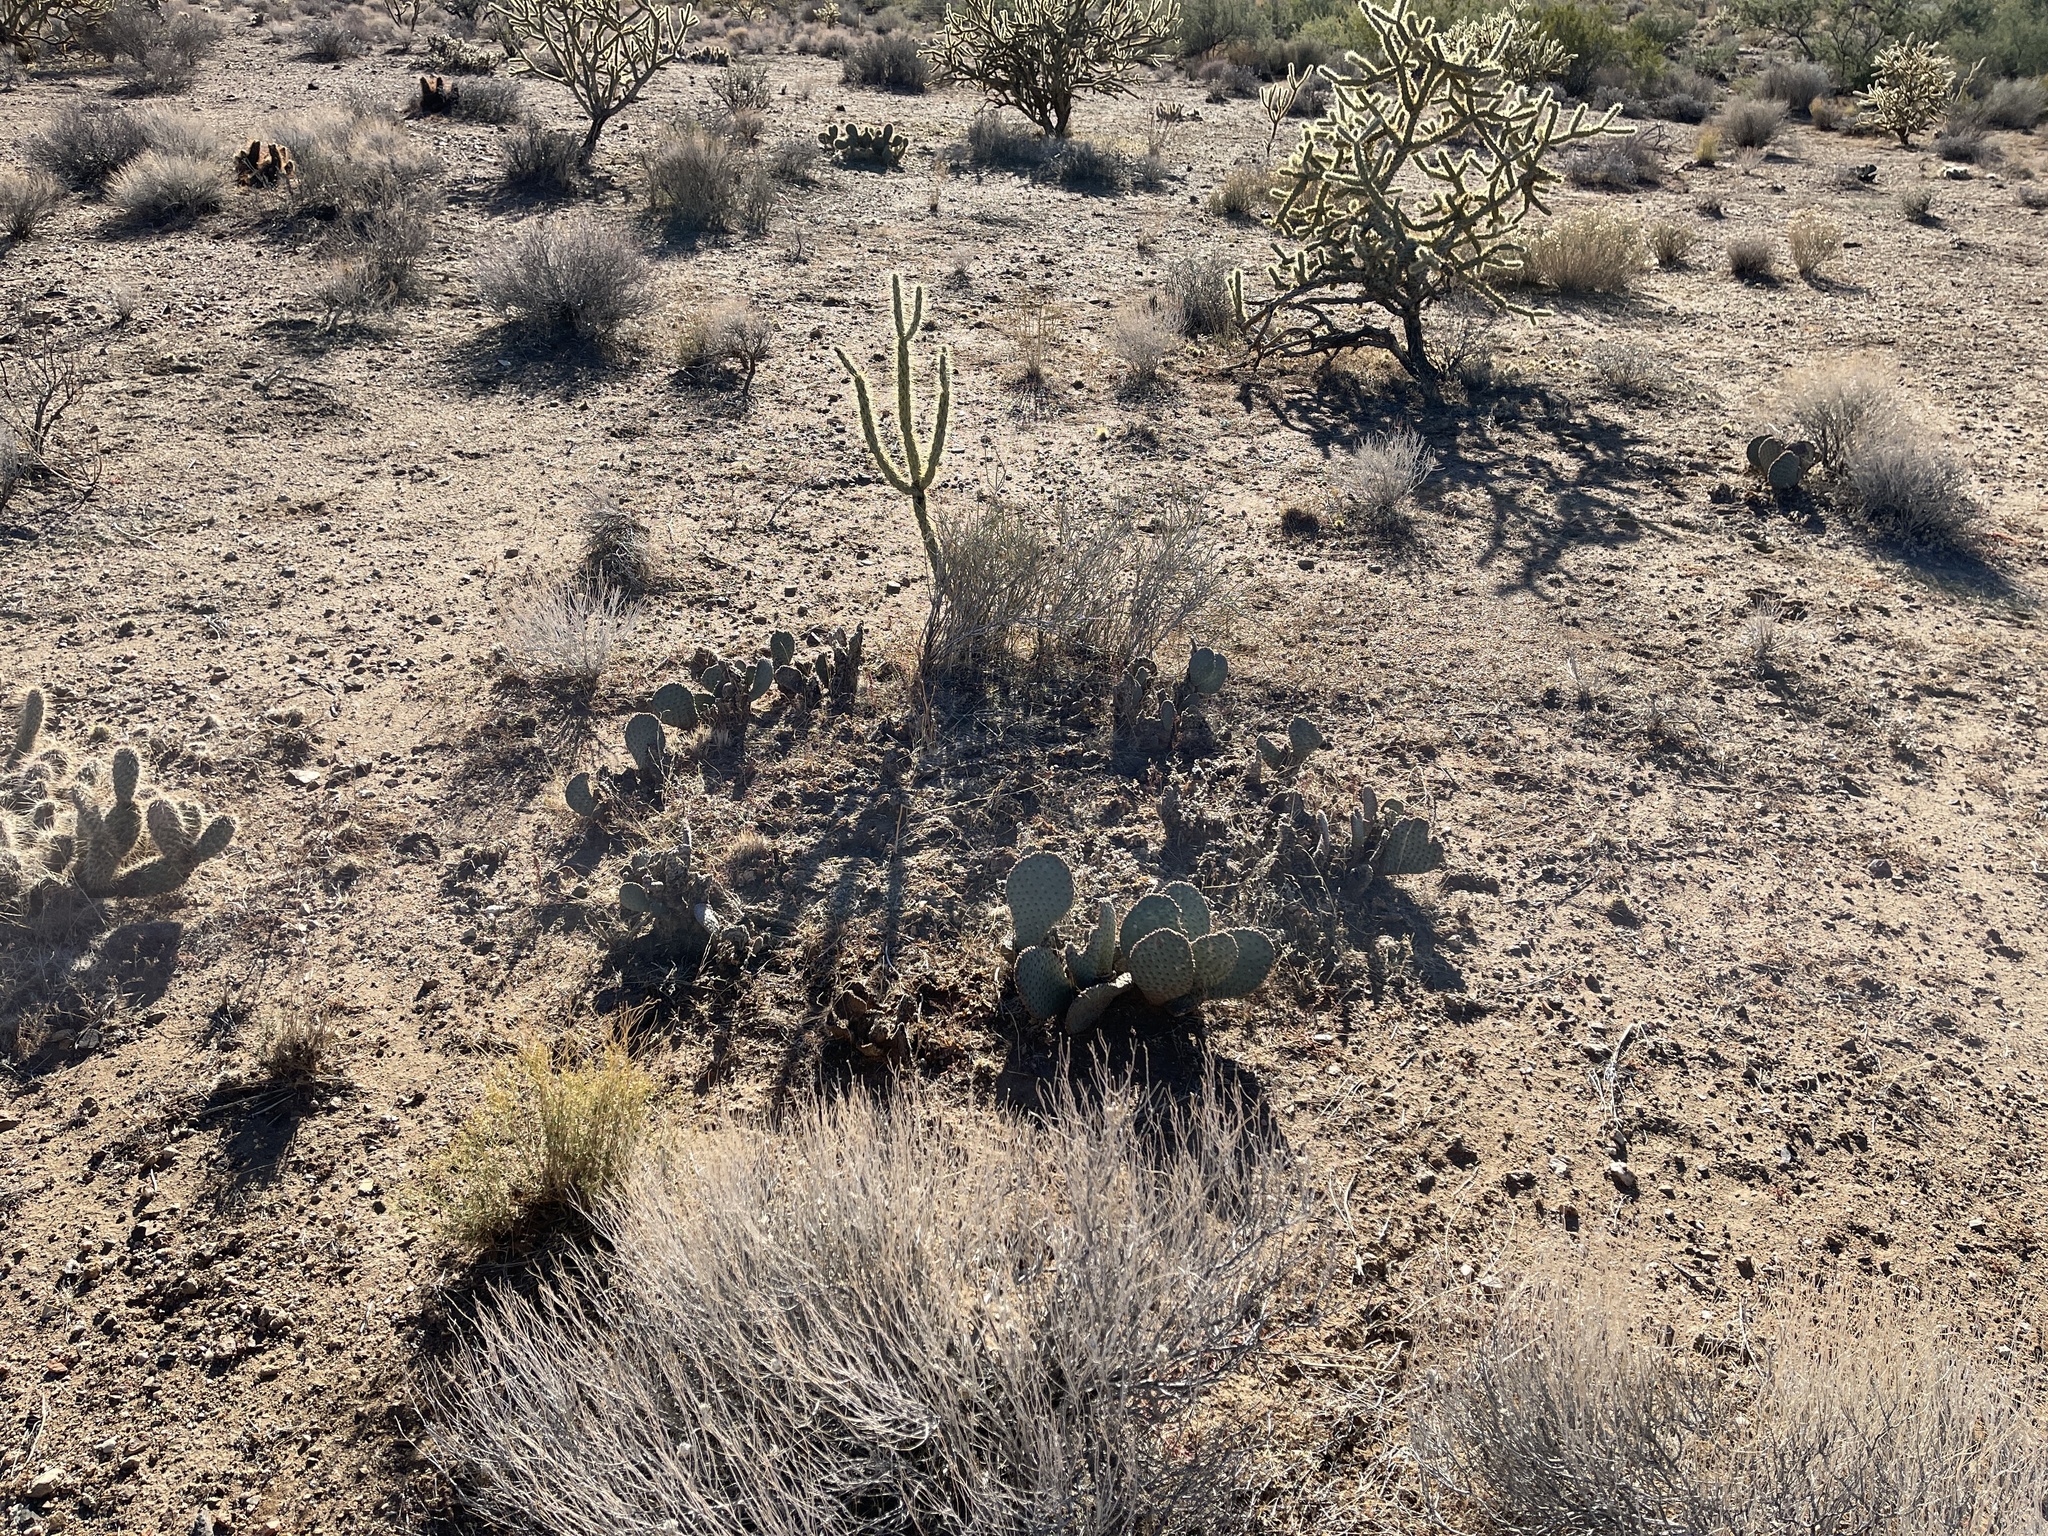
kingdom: Plantae
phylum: Tracheophyta
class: Magnoliopsida
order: Caryophyllales
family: Cactaceae
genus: Opuntia
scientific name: Opuntia polyacantha
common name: Plains prickly-pear
